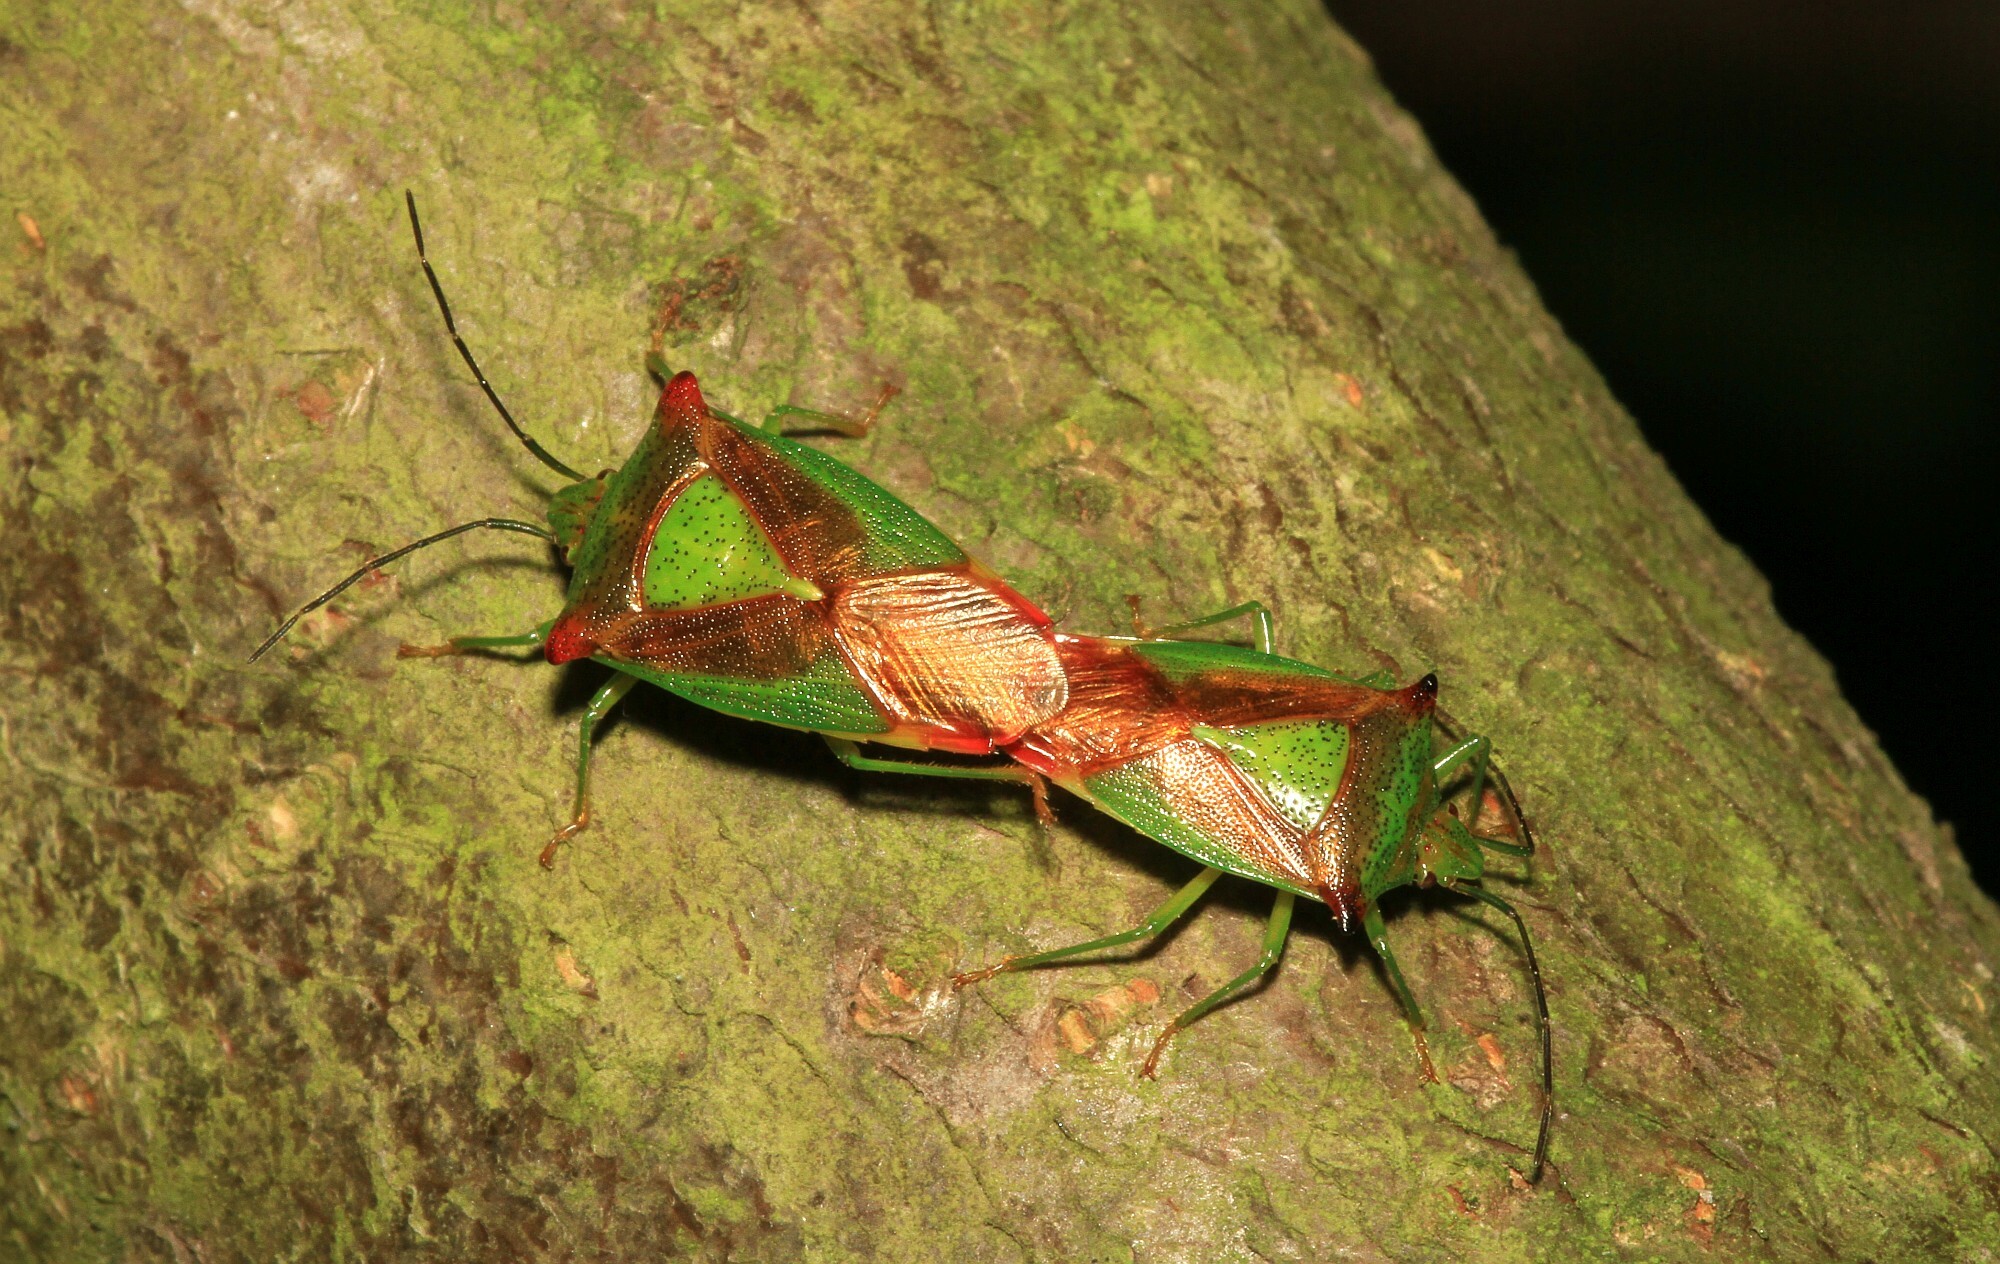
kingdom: Animalia
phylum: Arthropoda
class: Insecta
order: Hemiptera
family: Acanthosomatidae
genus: Acanthosoma
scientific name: Acanthosoma haemorrhoidale
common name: Hawthorn shieldbug
